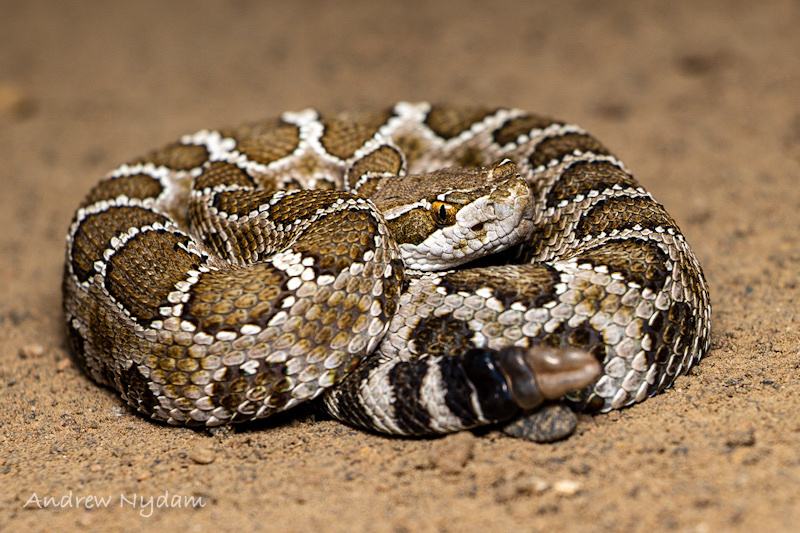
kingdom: Animalia
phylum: Chordata
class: Squamata
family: Viperidae
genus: Crotalus
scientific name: Crotalus oreganus
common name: Abyssus
